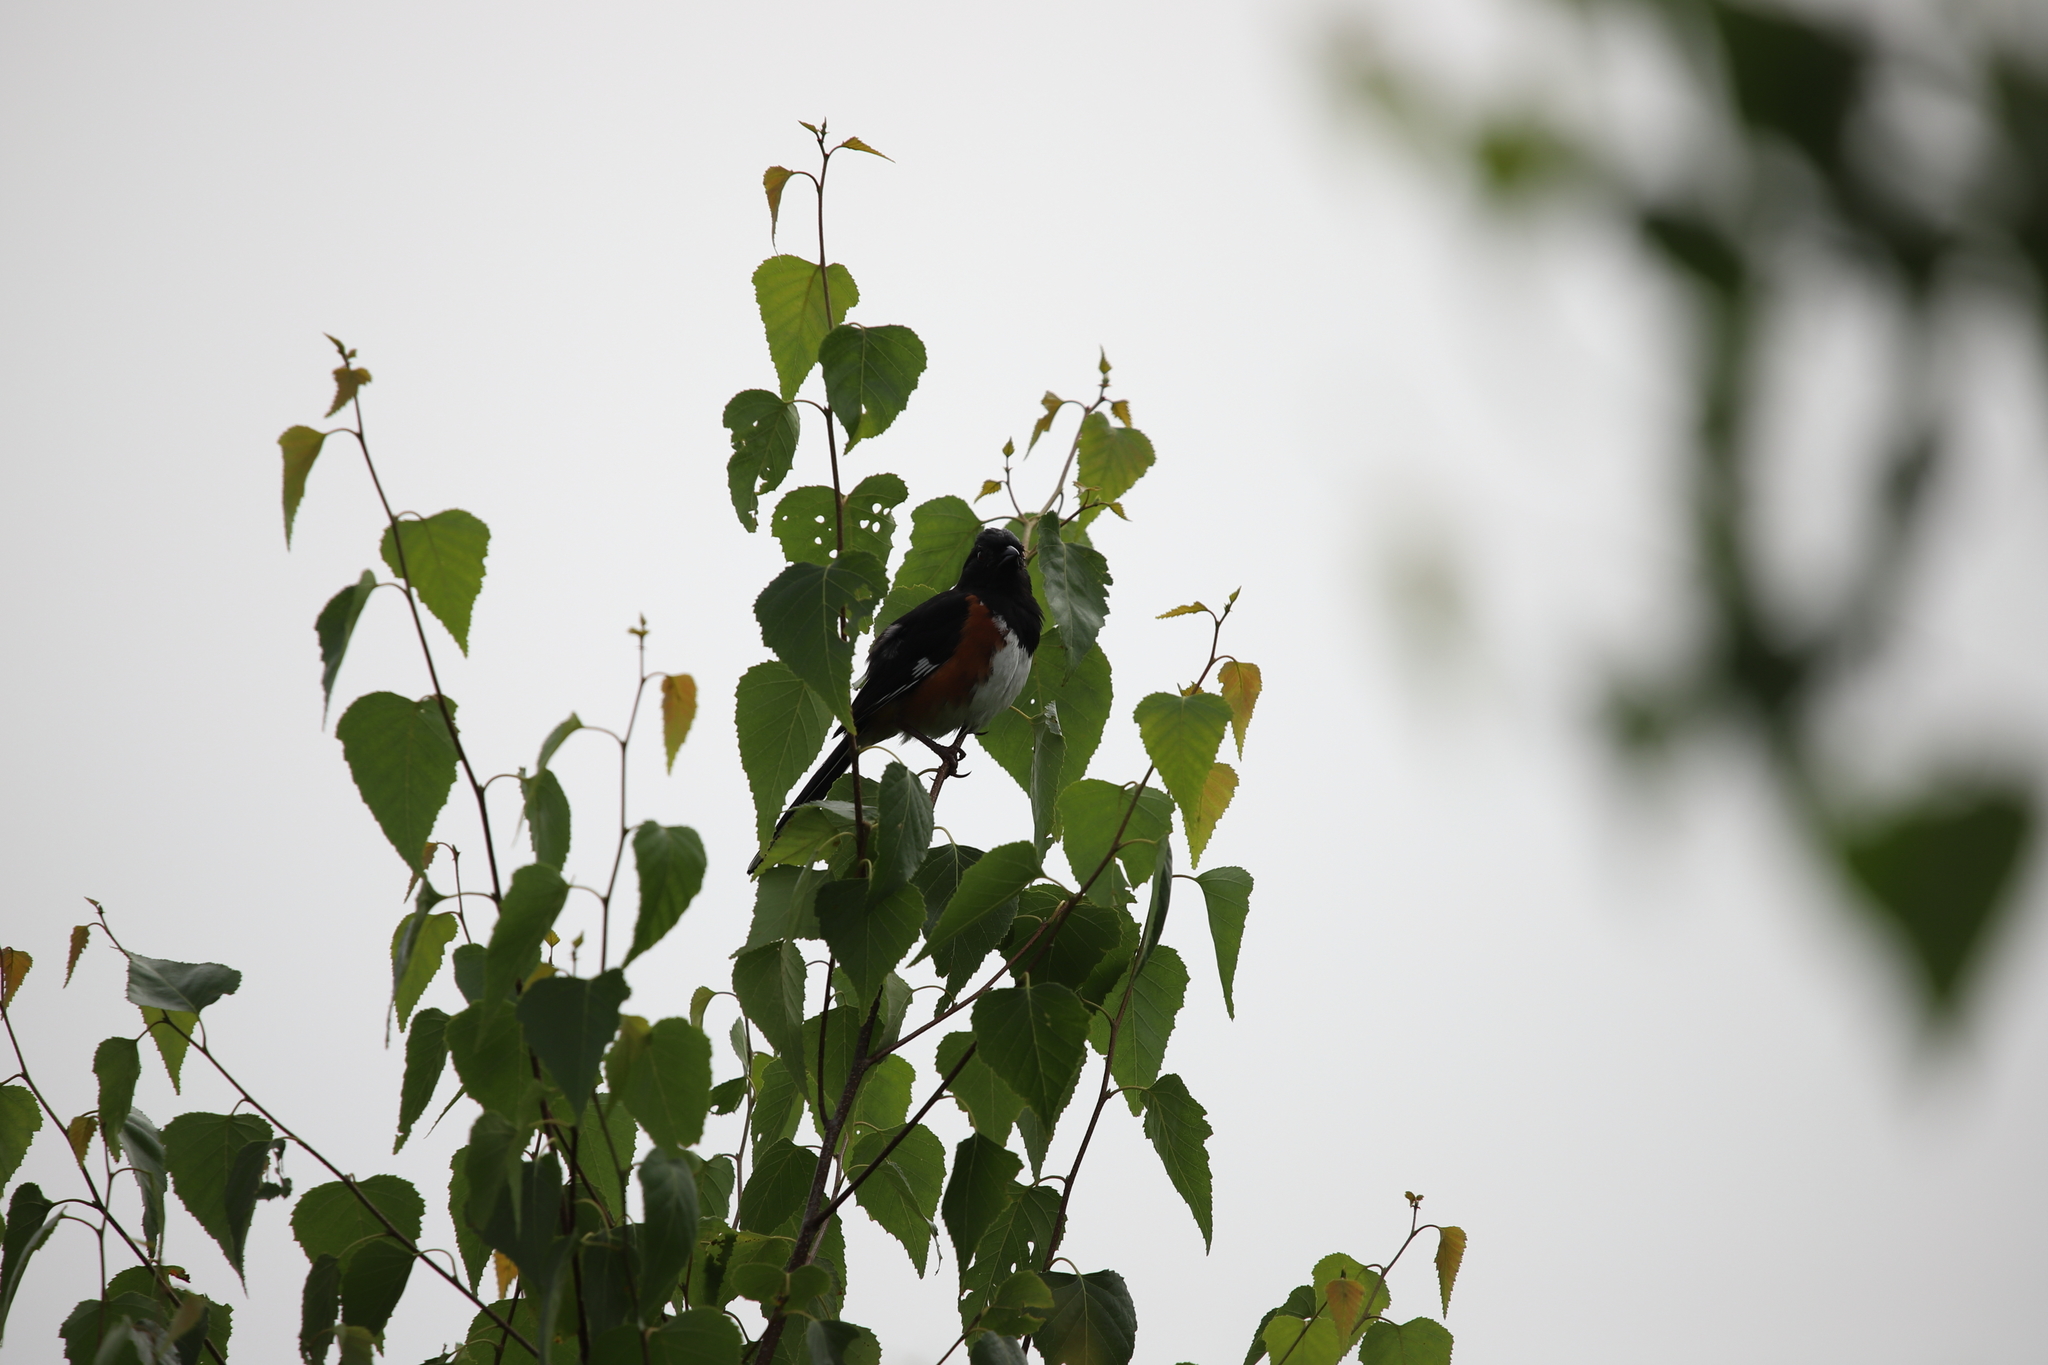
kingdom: Animalia
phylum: Chordata
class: Aves
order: Passeriformes
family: Passerellidae
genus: Pipilo
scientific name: Pipilo erythrophthalmus
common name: Eastern towhee
